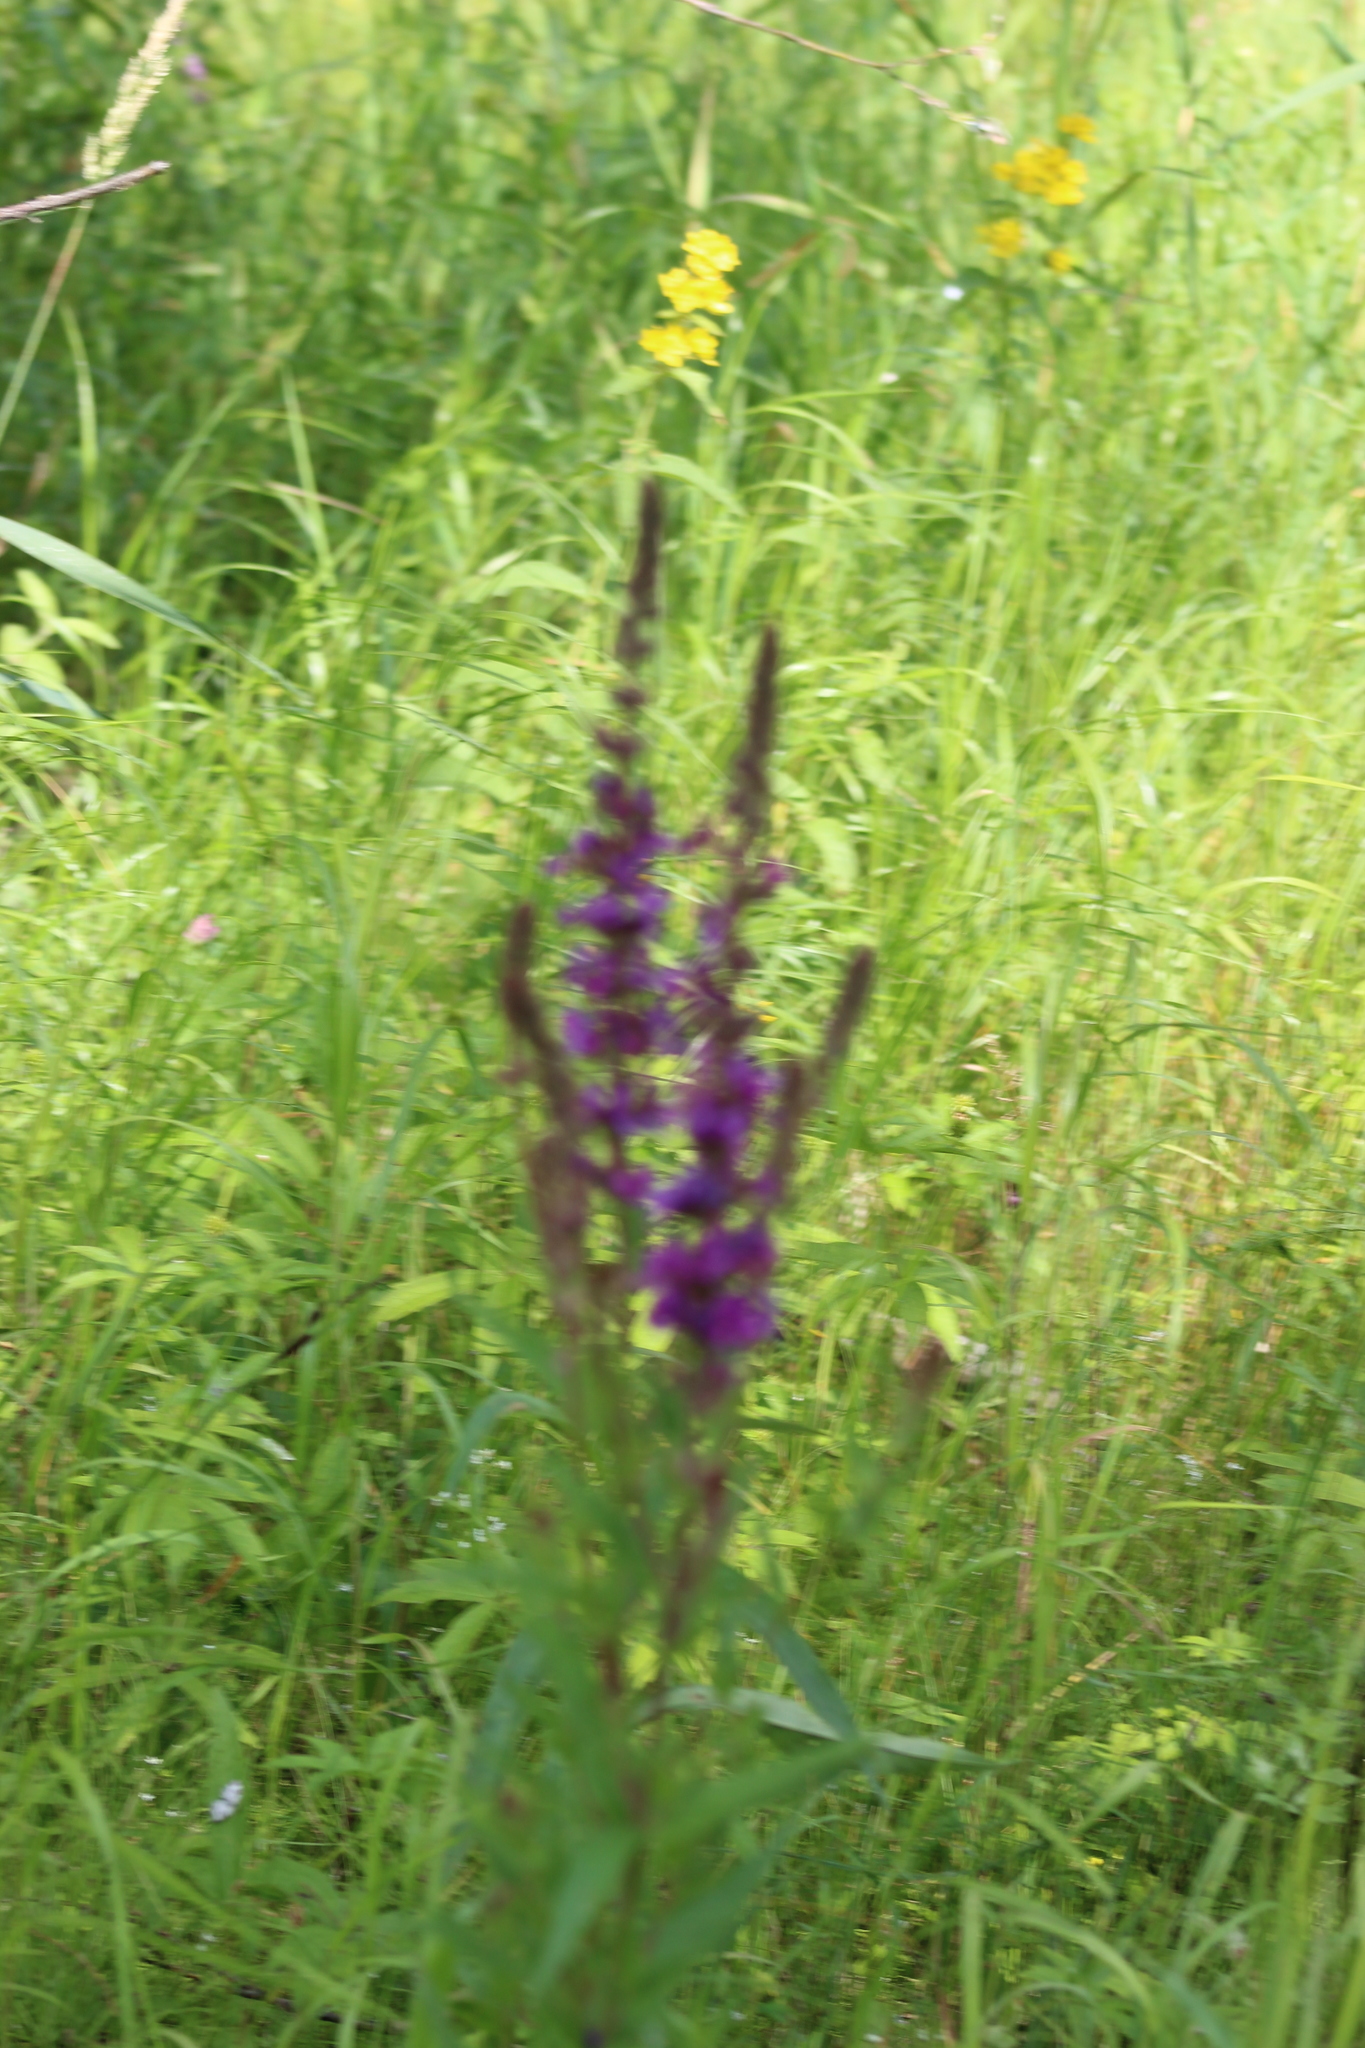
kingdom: Plantae
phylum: Tracheophyta
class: Magnoliopsida
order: Myrtales
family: Lythraceae
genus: Lythrum
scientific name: Lythrum salicaria
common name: Purple loosestrife
